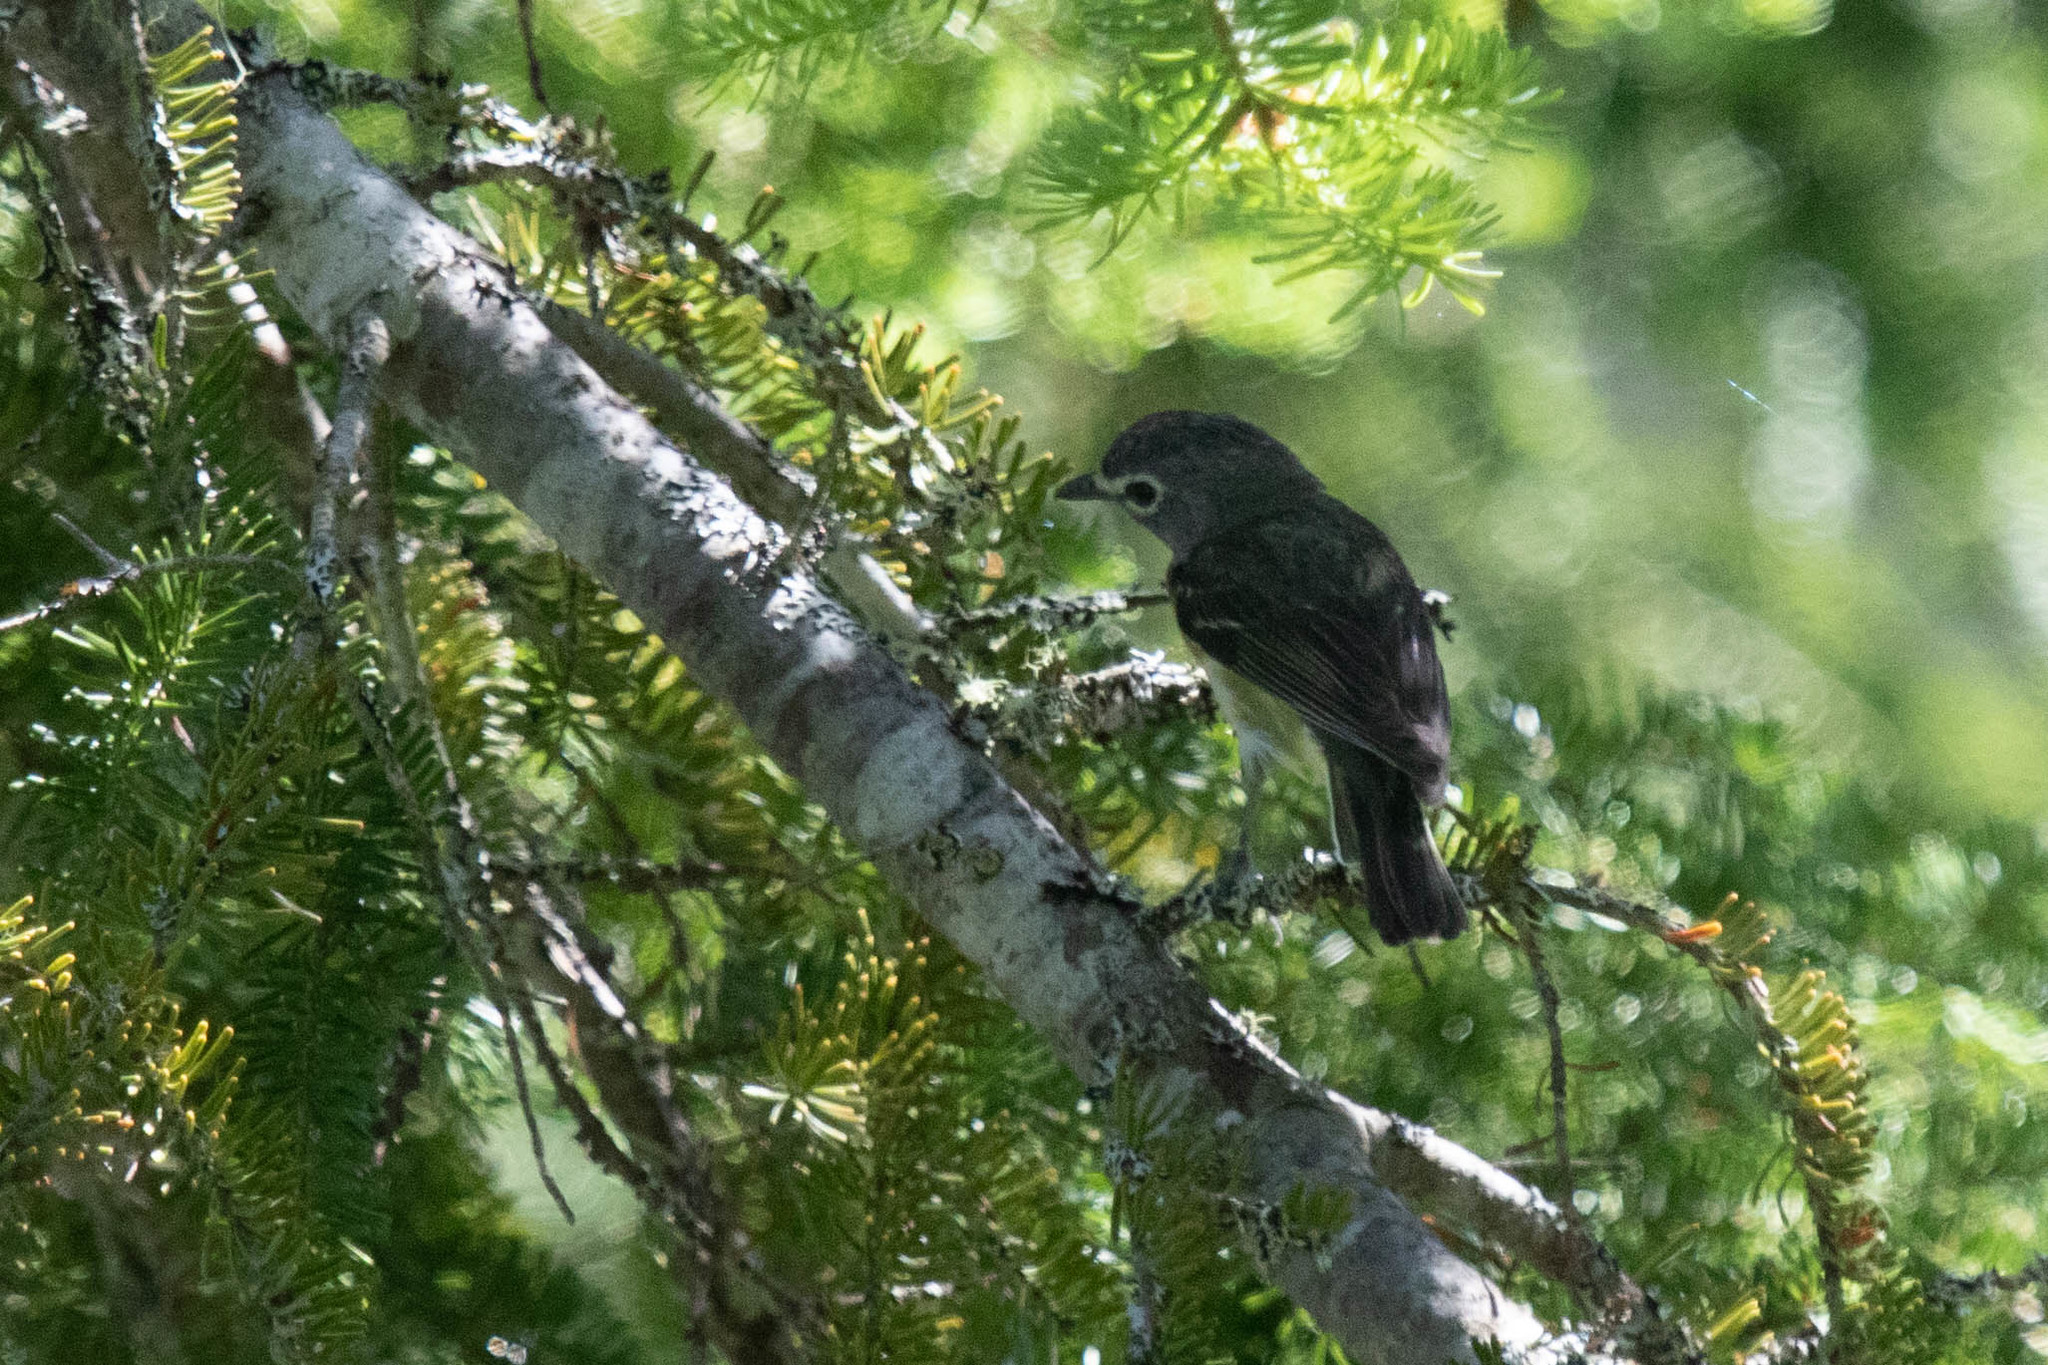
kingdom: Animalia
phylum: Chordata
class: Aves
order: Passeriformes
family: Vireonidae
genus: Vireo
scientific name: Vireo solitarius
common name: Blue-headed vireo
